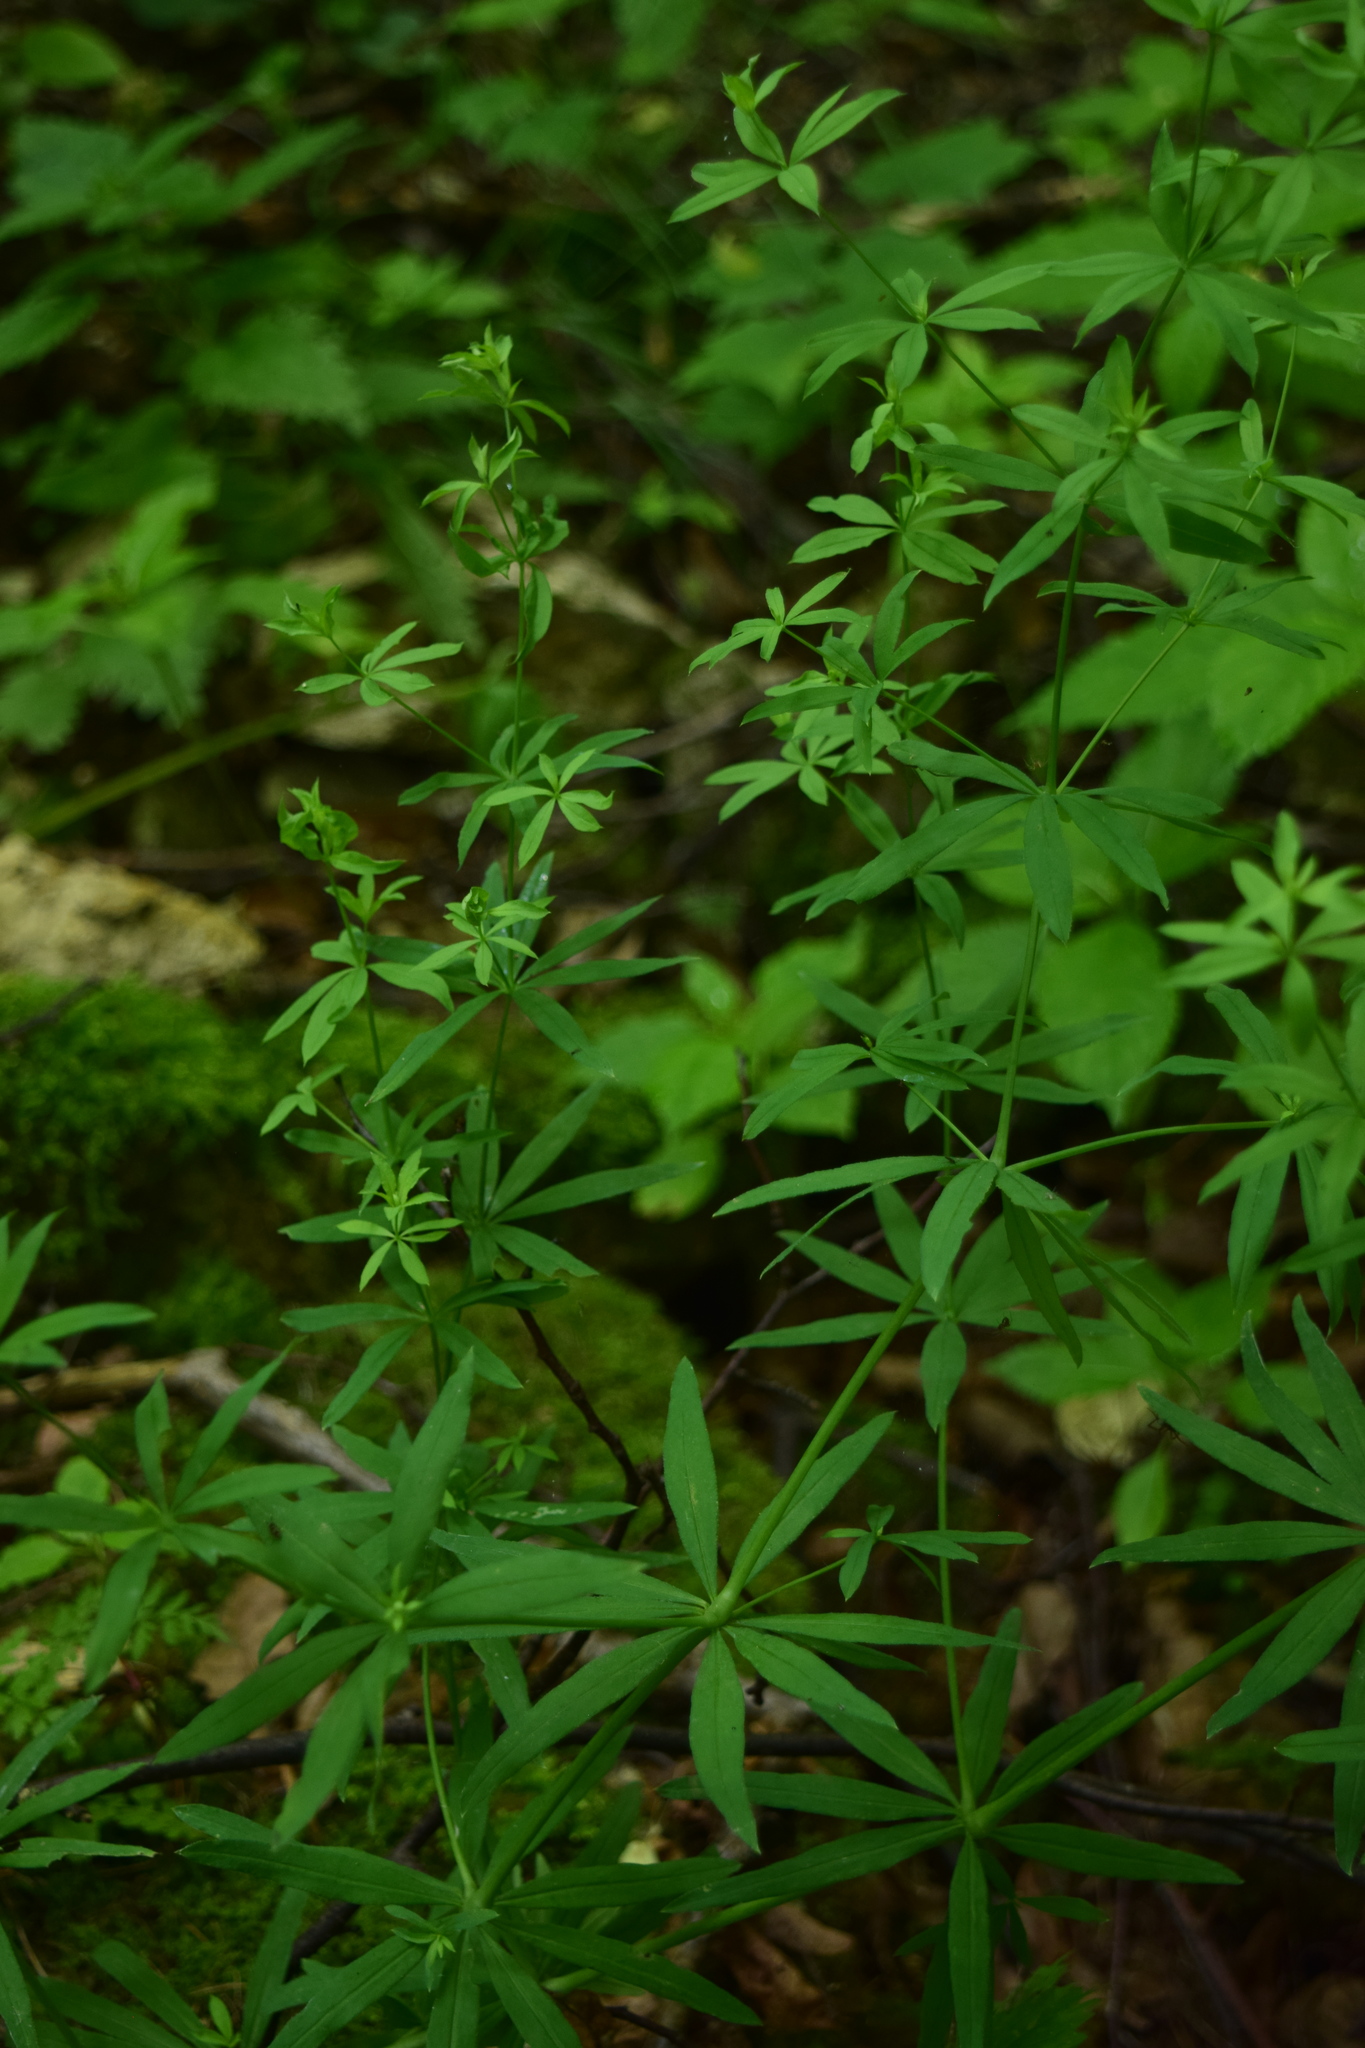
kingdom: Plantae
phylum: Tracheophyta
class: Magnoliopsida
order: Gentianales
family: Rubiaceae
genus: Galium
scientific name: Galium intermedium
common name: Bedstraw
